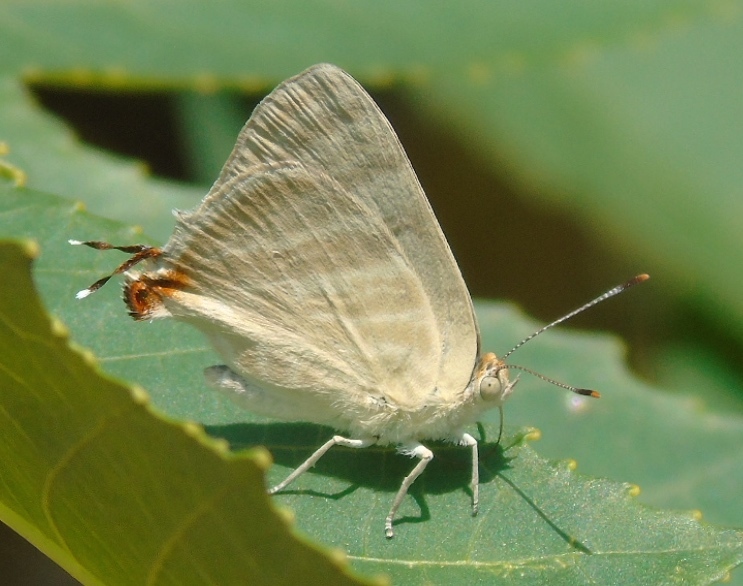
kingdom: Animalia
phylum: Arthropoda
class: Insecta
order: Lepidoptera
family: Lycaenidae
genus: Dolymorpha
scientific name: Dolymorpha jada
